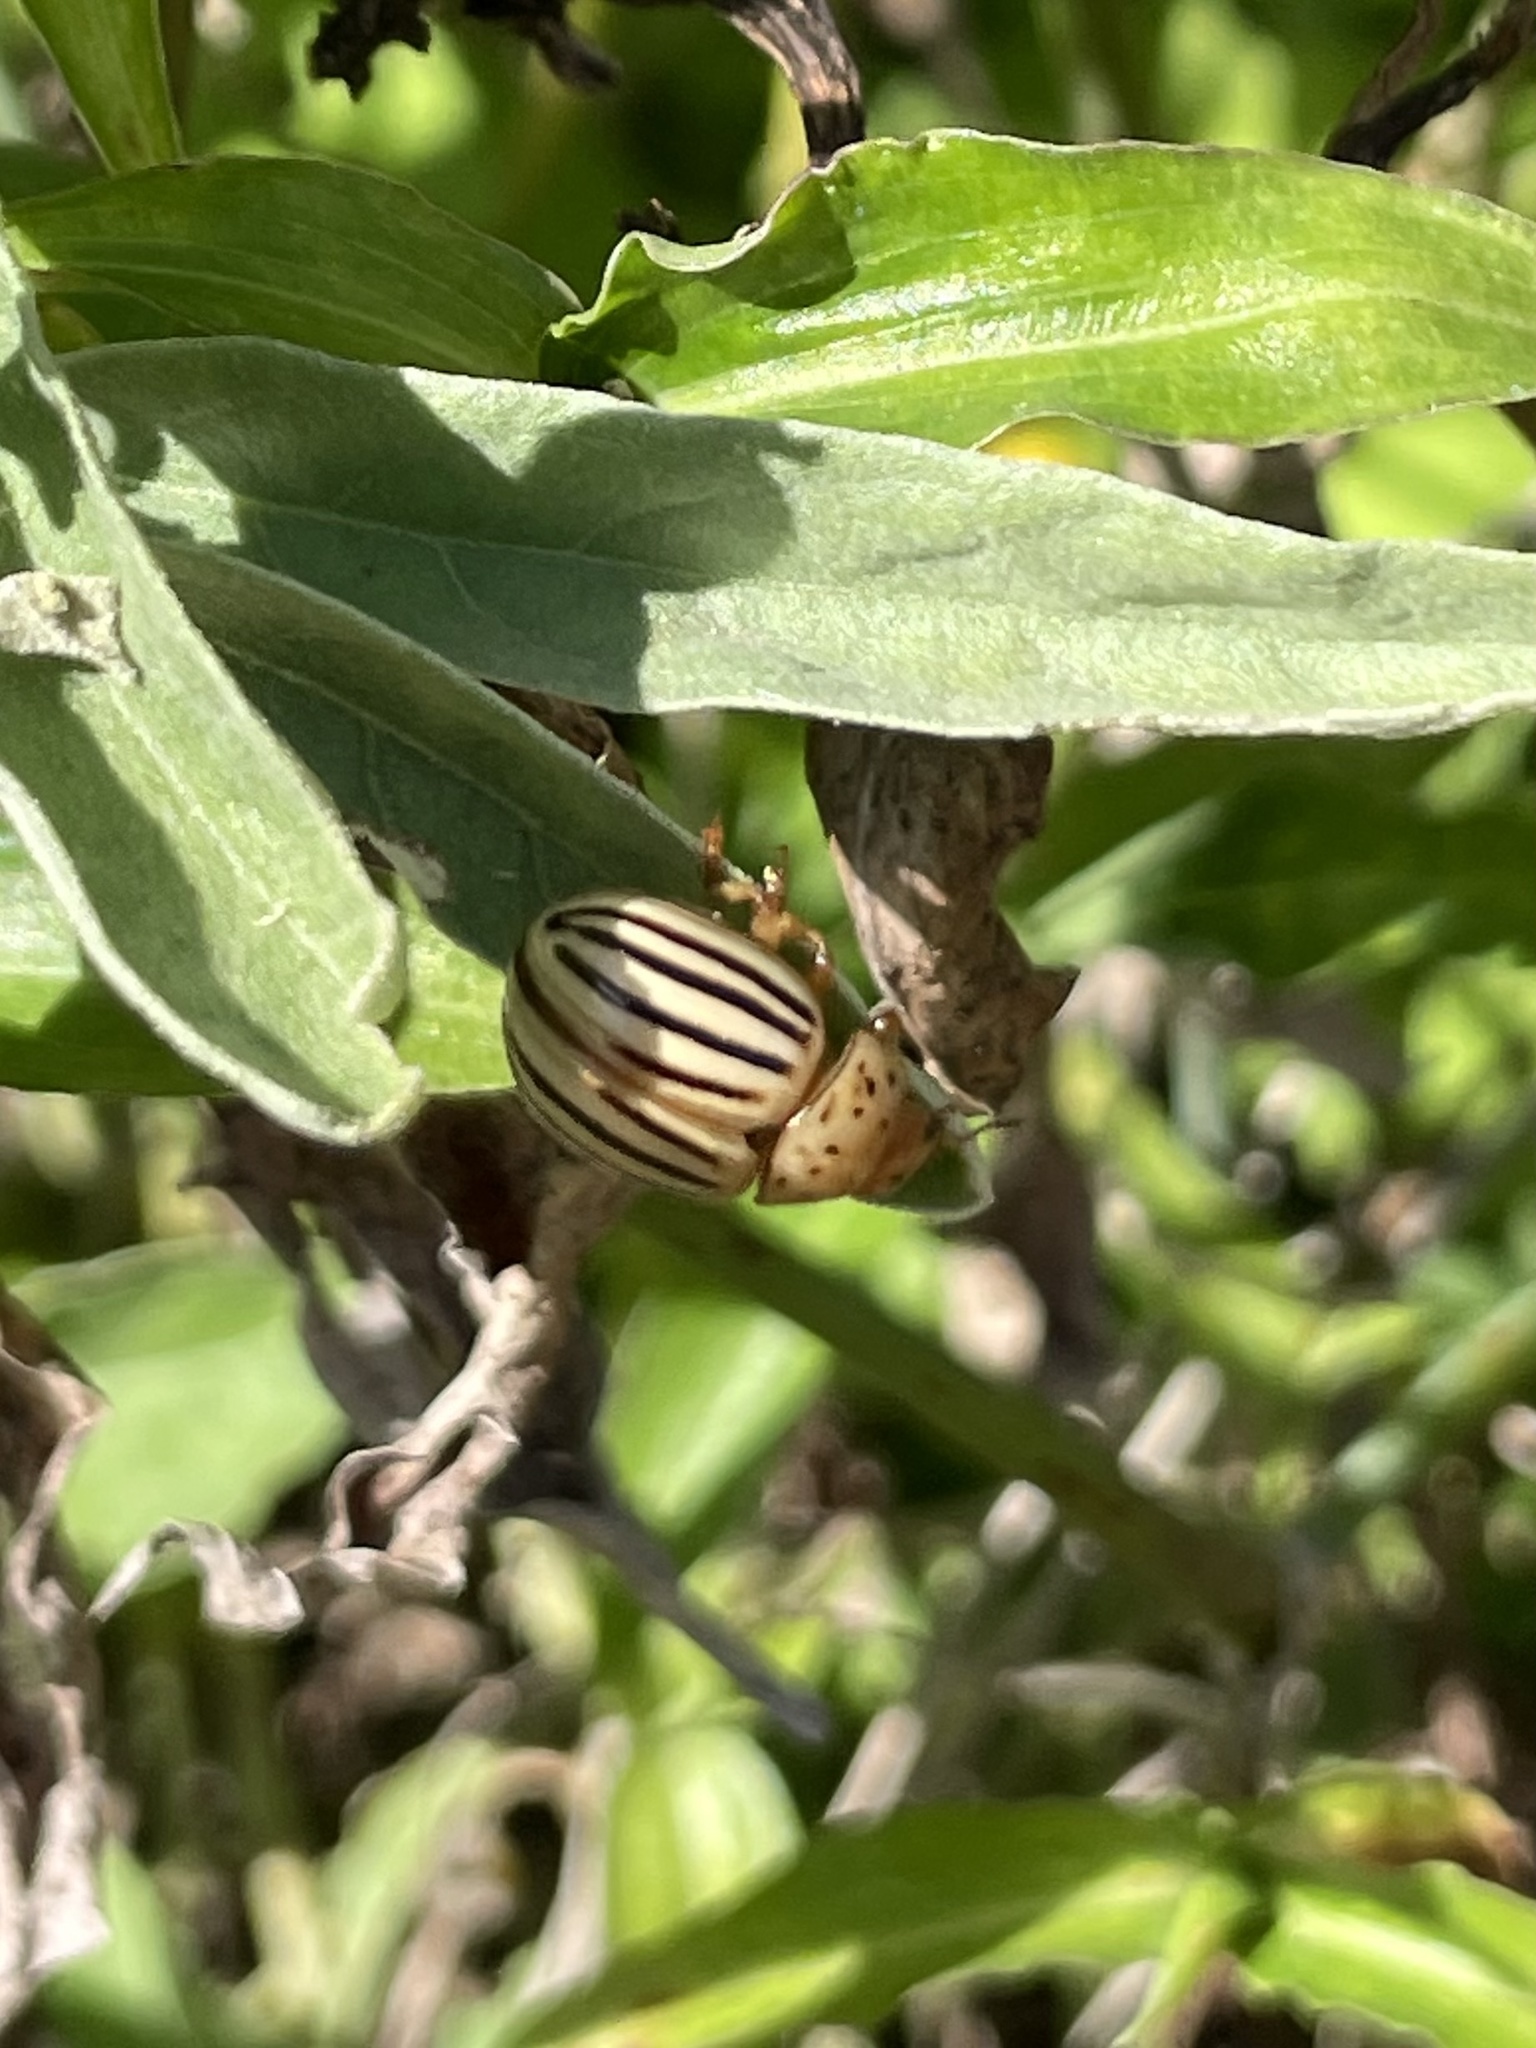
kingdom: Animalia
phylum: Arthropoda
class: Insecta
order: Coleoptera
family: Chrysomelidae
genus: Leptinotarsa
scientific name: Leptinotarsa texana
